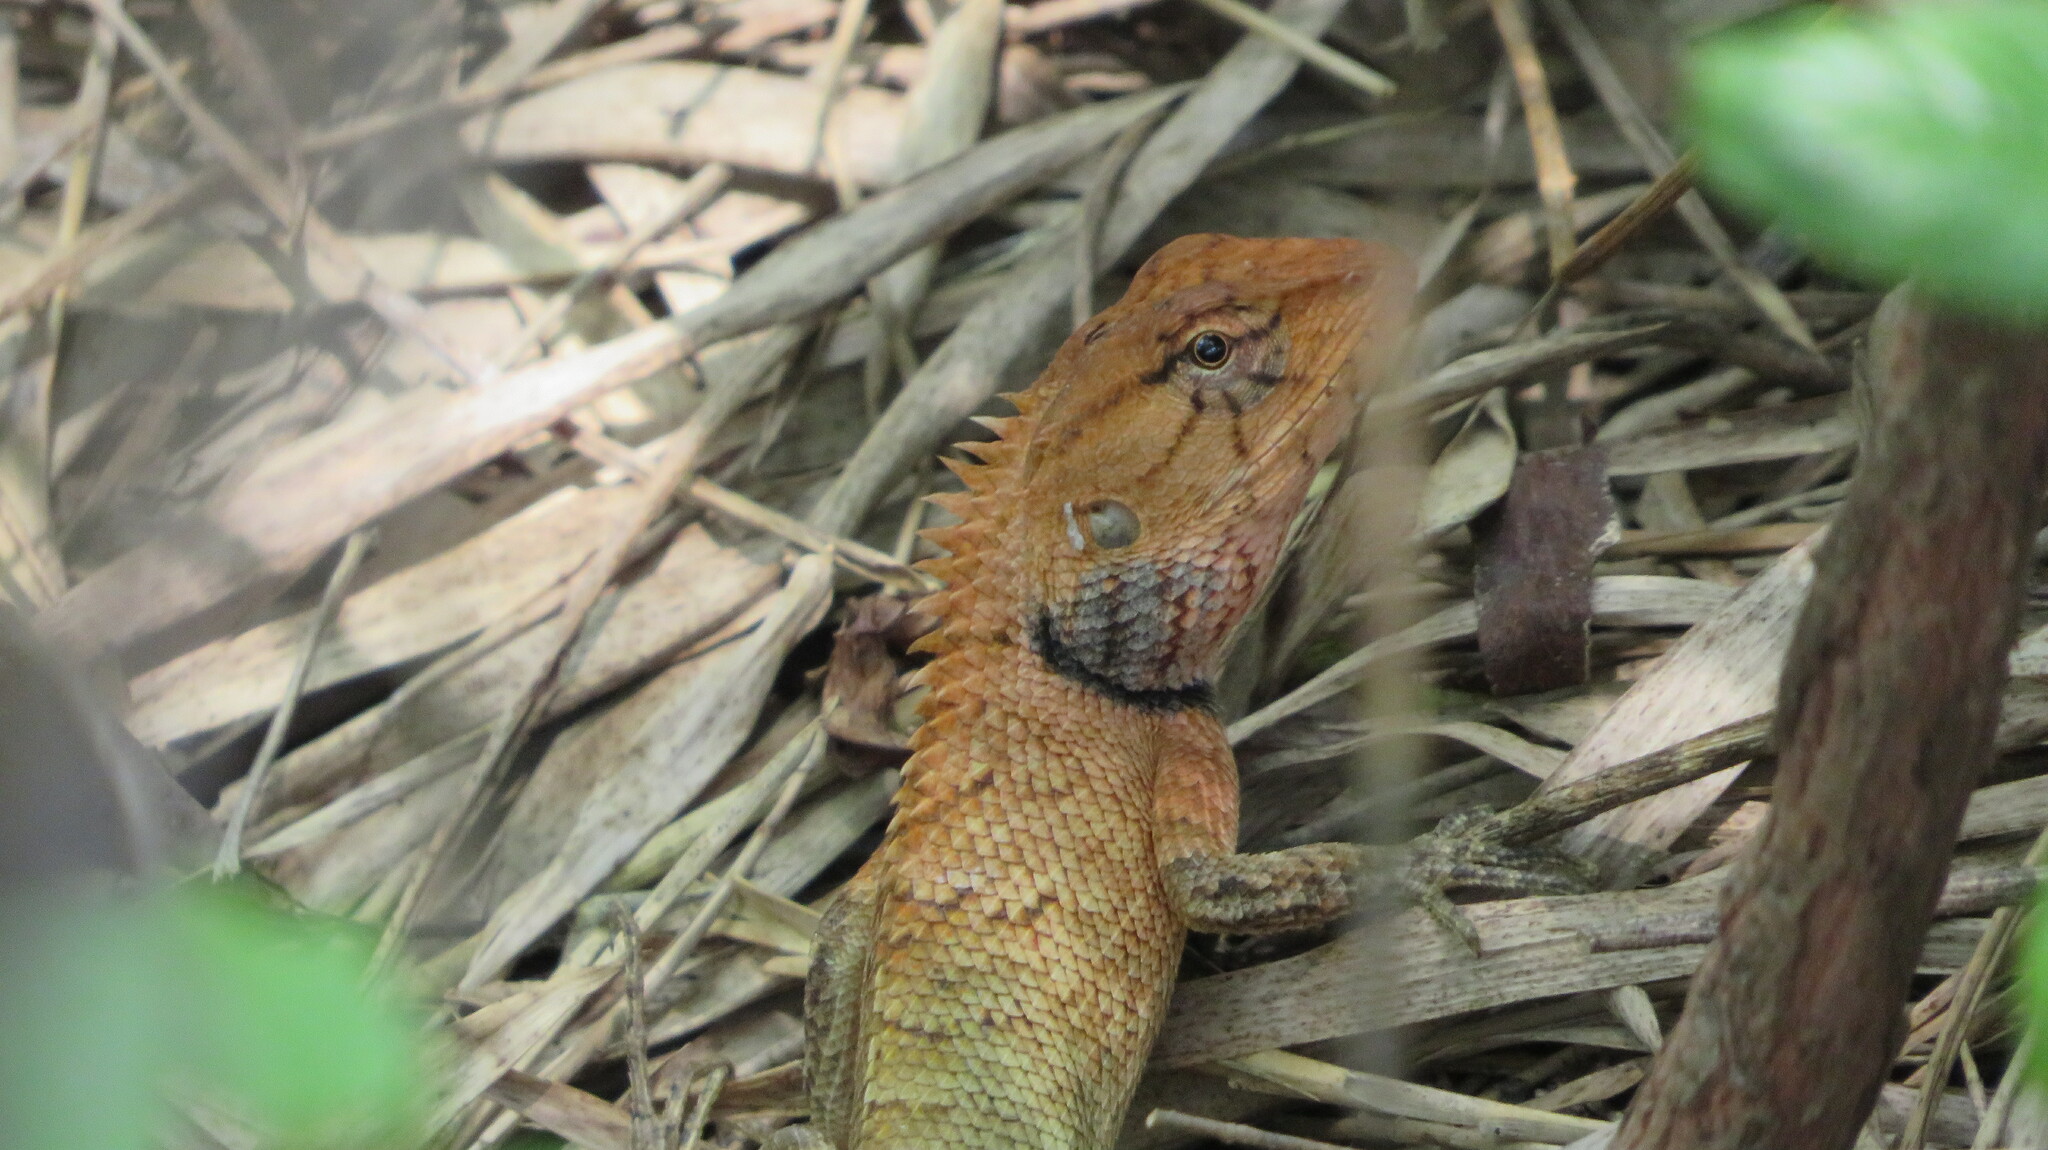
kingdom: Animalia
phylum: Chordata
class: Squamata
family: Agamidae
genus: Calotes
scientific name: Calotes versicolor
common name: Oriental garden lizard
